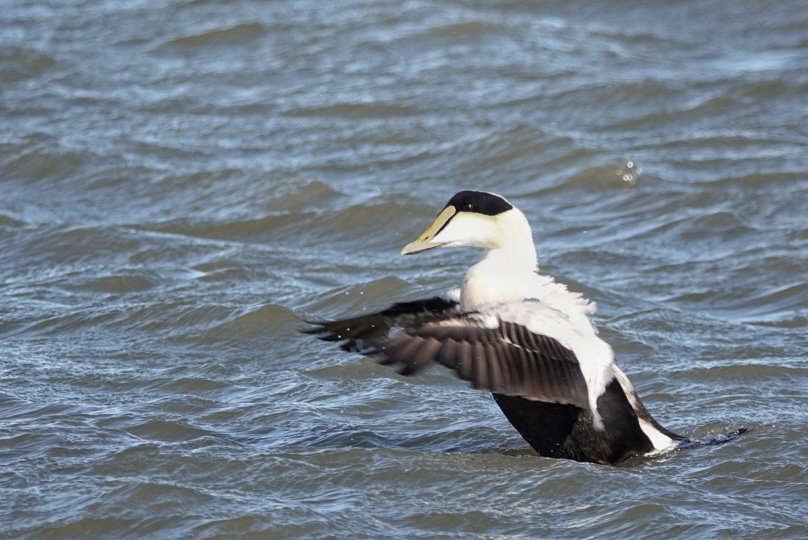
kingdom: Animalia
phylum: Chordata
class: Aves
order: Anseriformes
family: Anatidae
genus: Somateria
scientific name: Somateria mollissima
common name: Common eider
